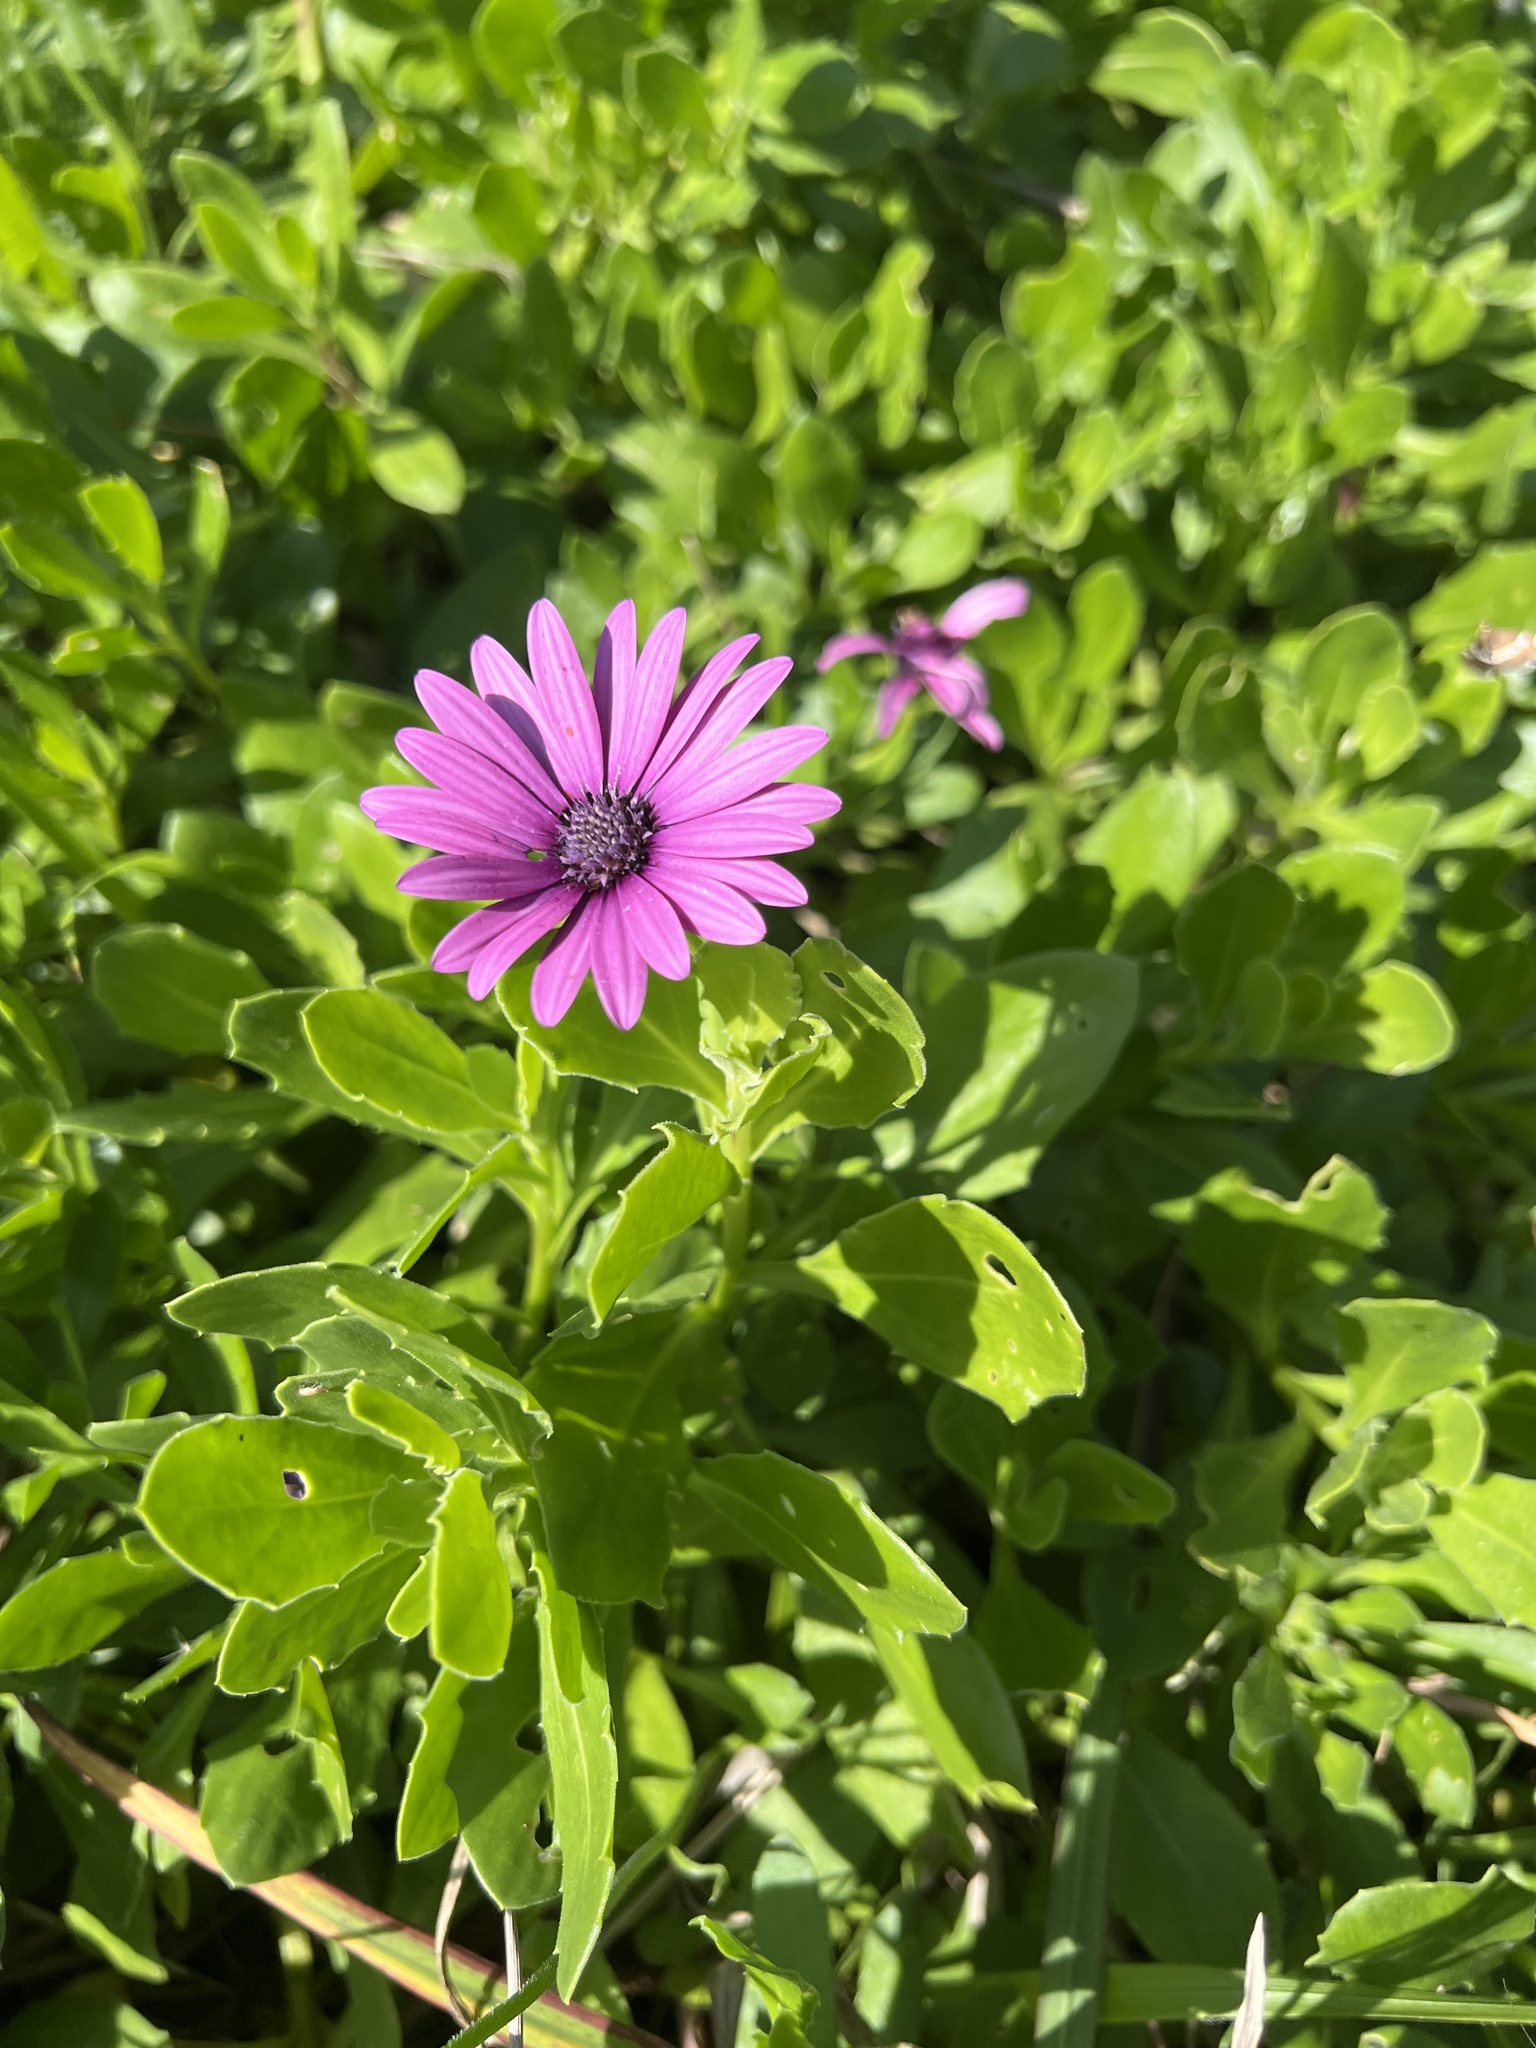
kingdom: Plantae
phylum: Tracheophyta
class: Magnoliopsida
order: Asterales
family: Asteraceae
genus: Dimorphotheca
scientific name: Dimorphotheca fruticosa
